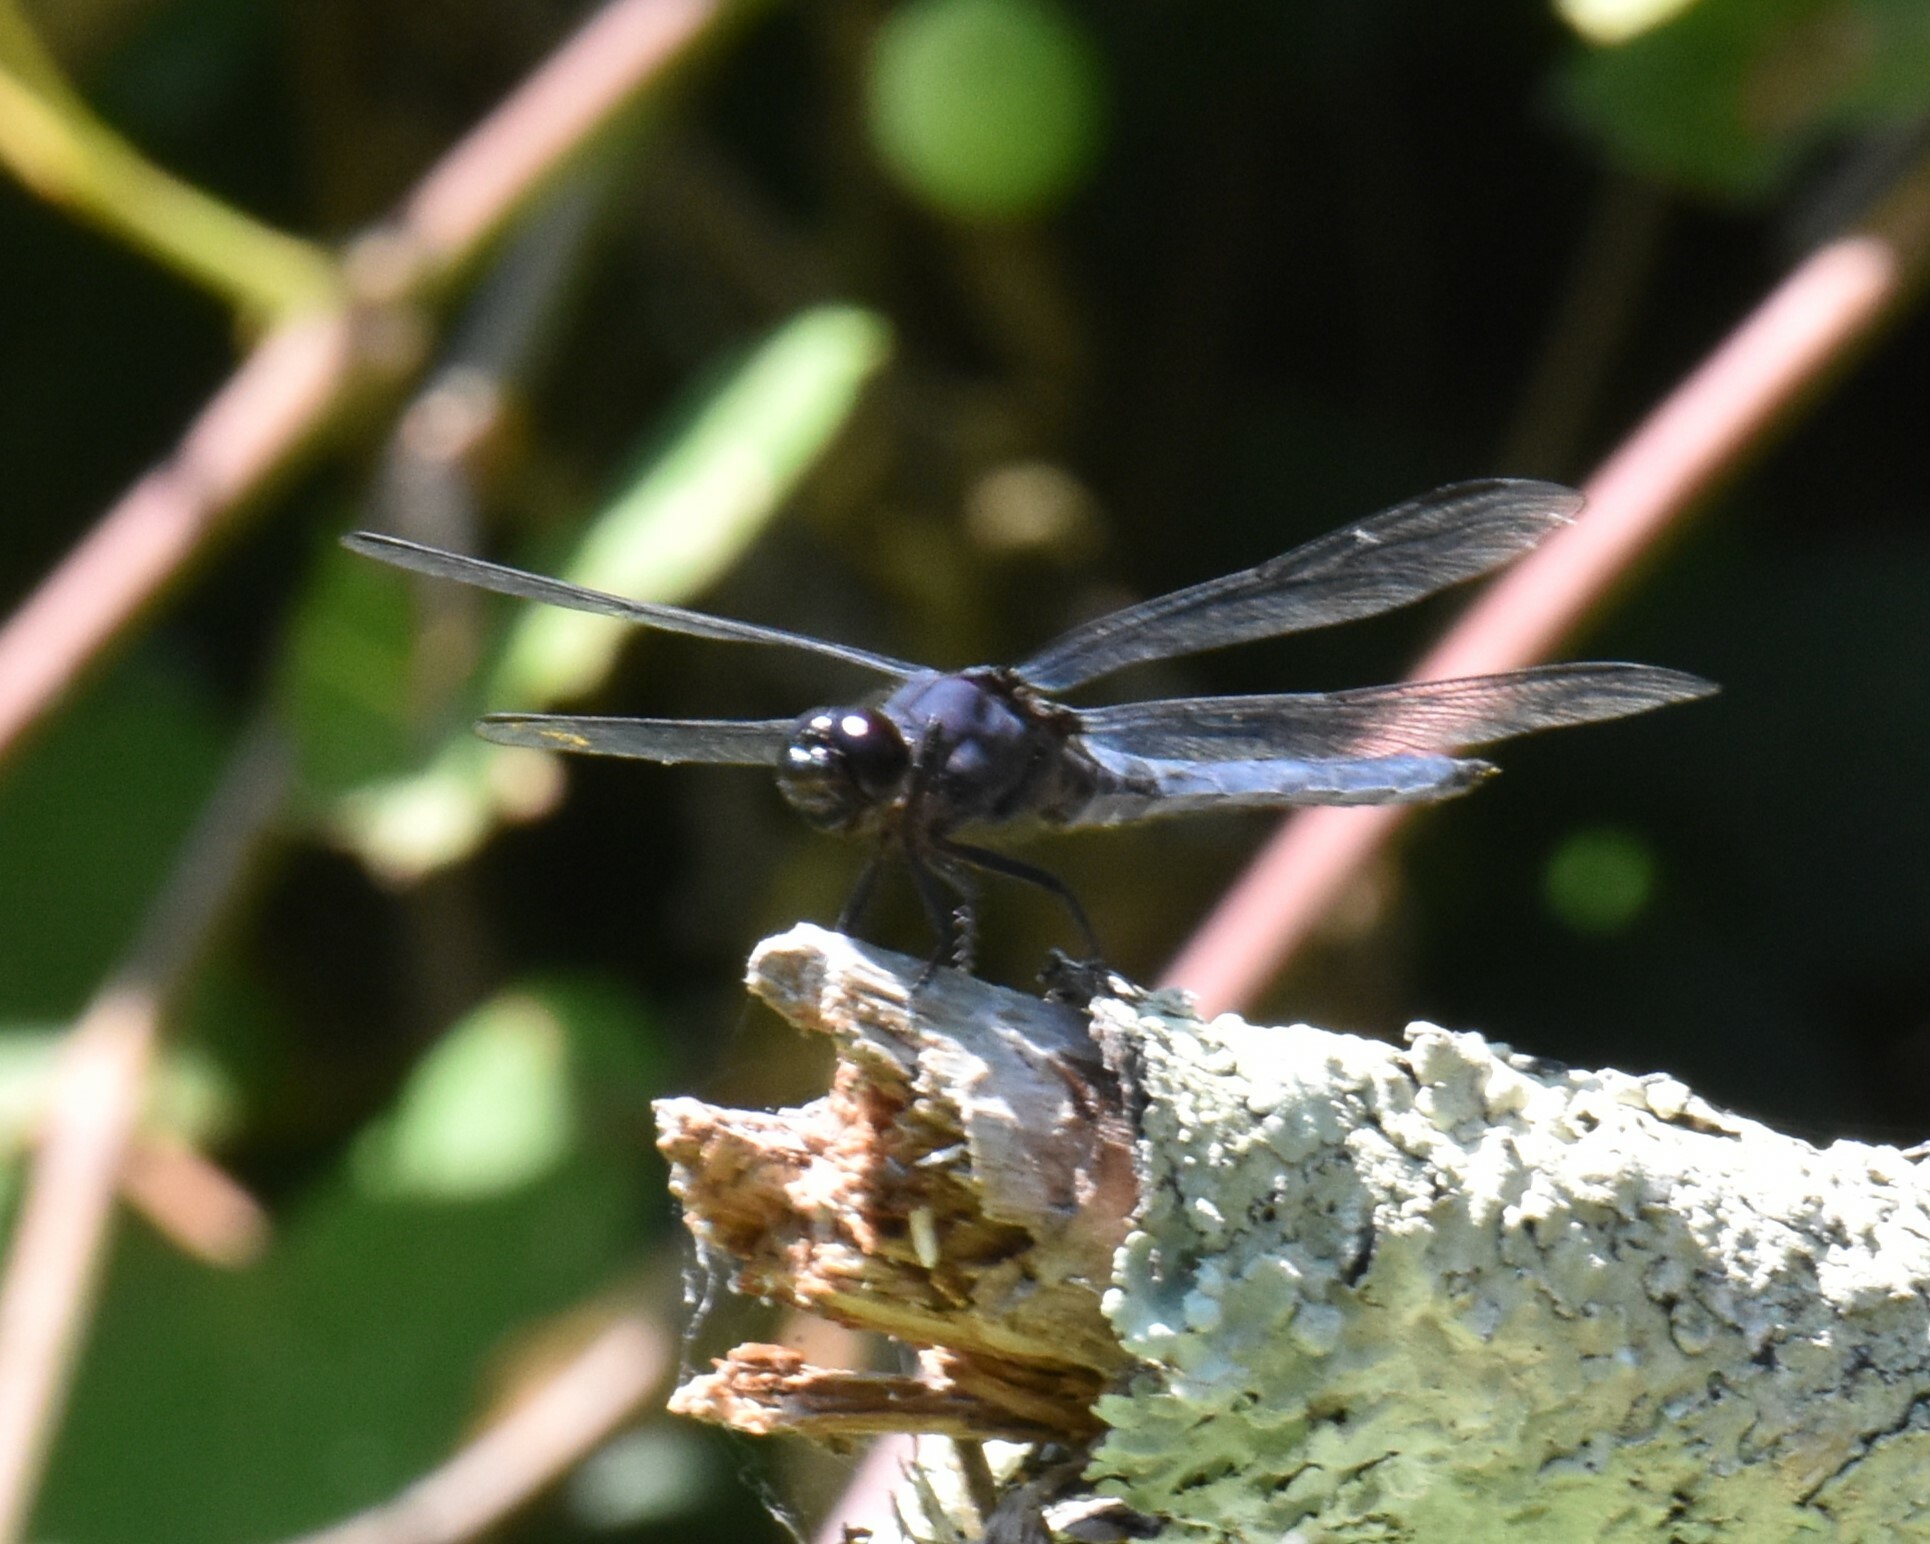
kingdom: Animalia
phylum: Arthropoda
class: Insecta
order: Odonata
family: Libellulidae
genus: Libellula
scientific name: Libellula incesta
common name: Slaty skimmer
